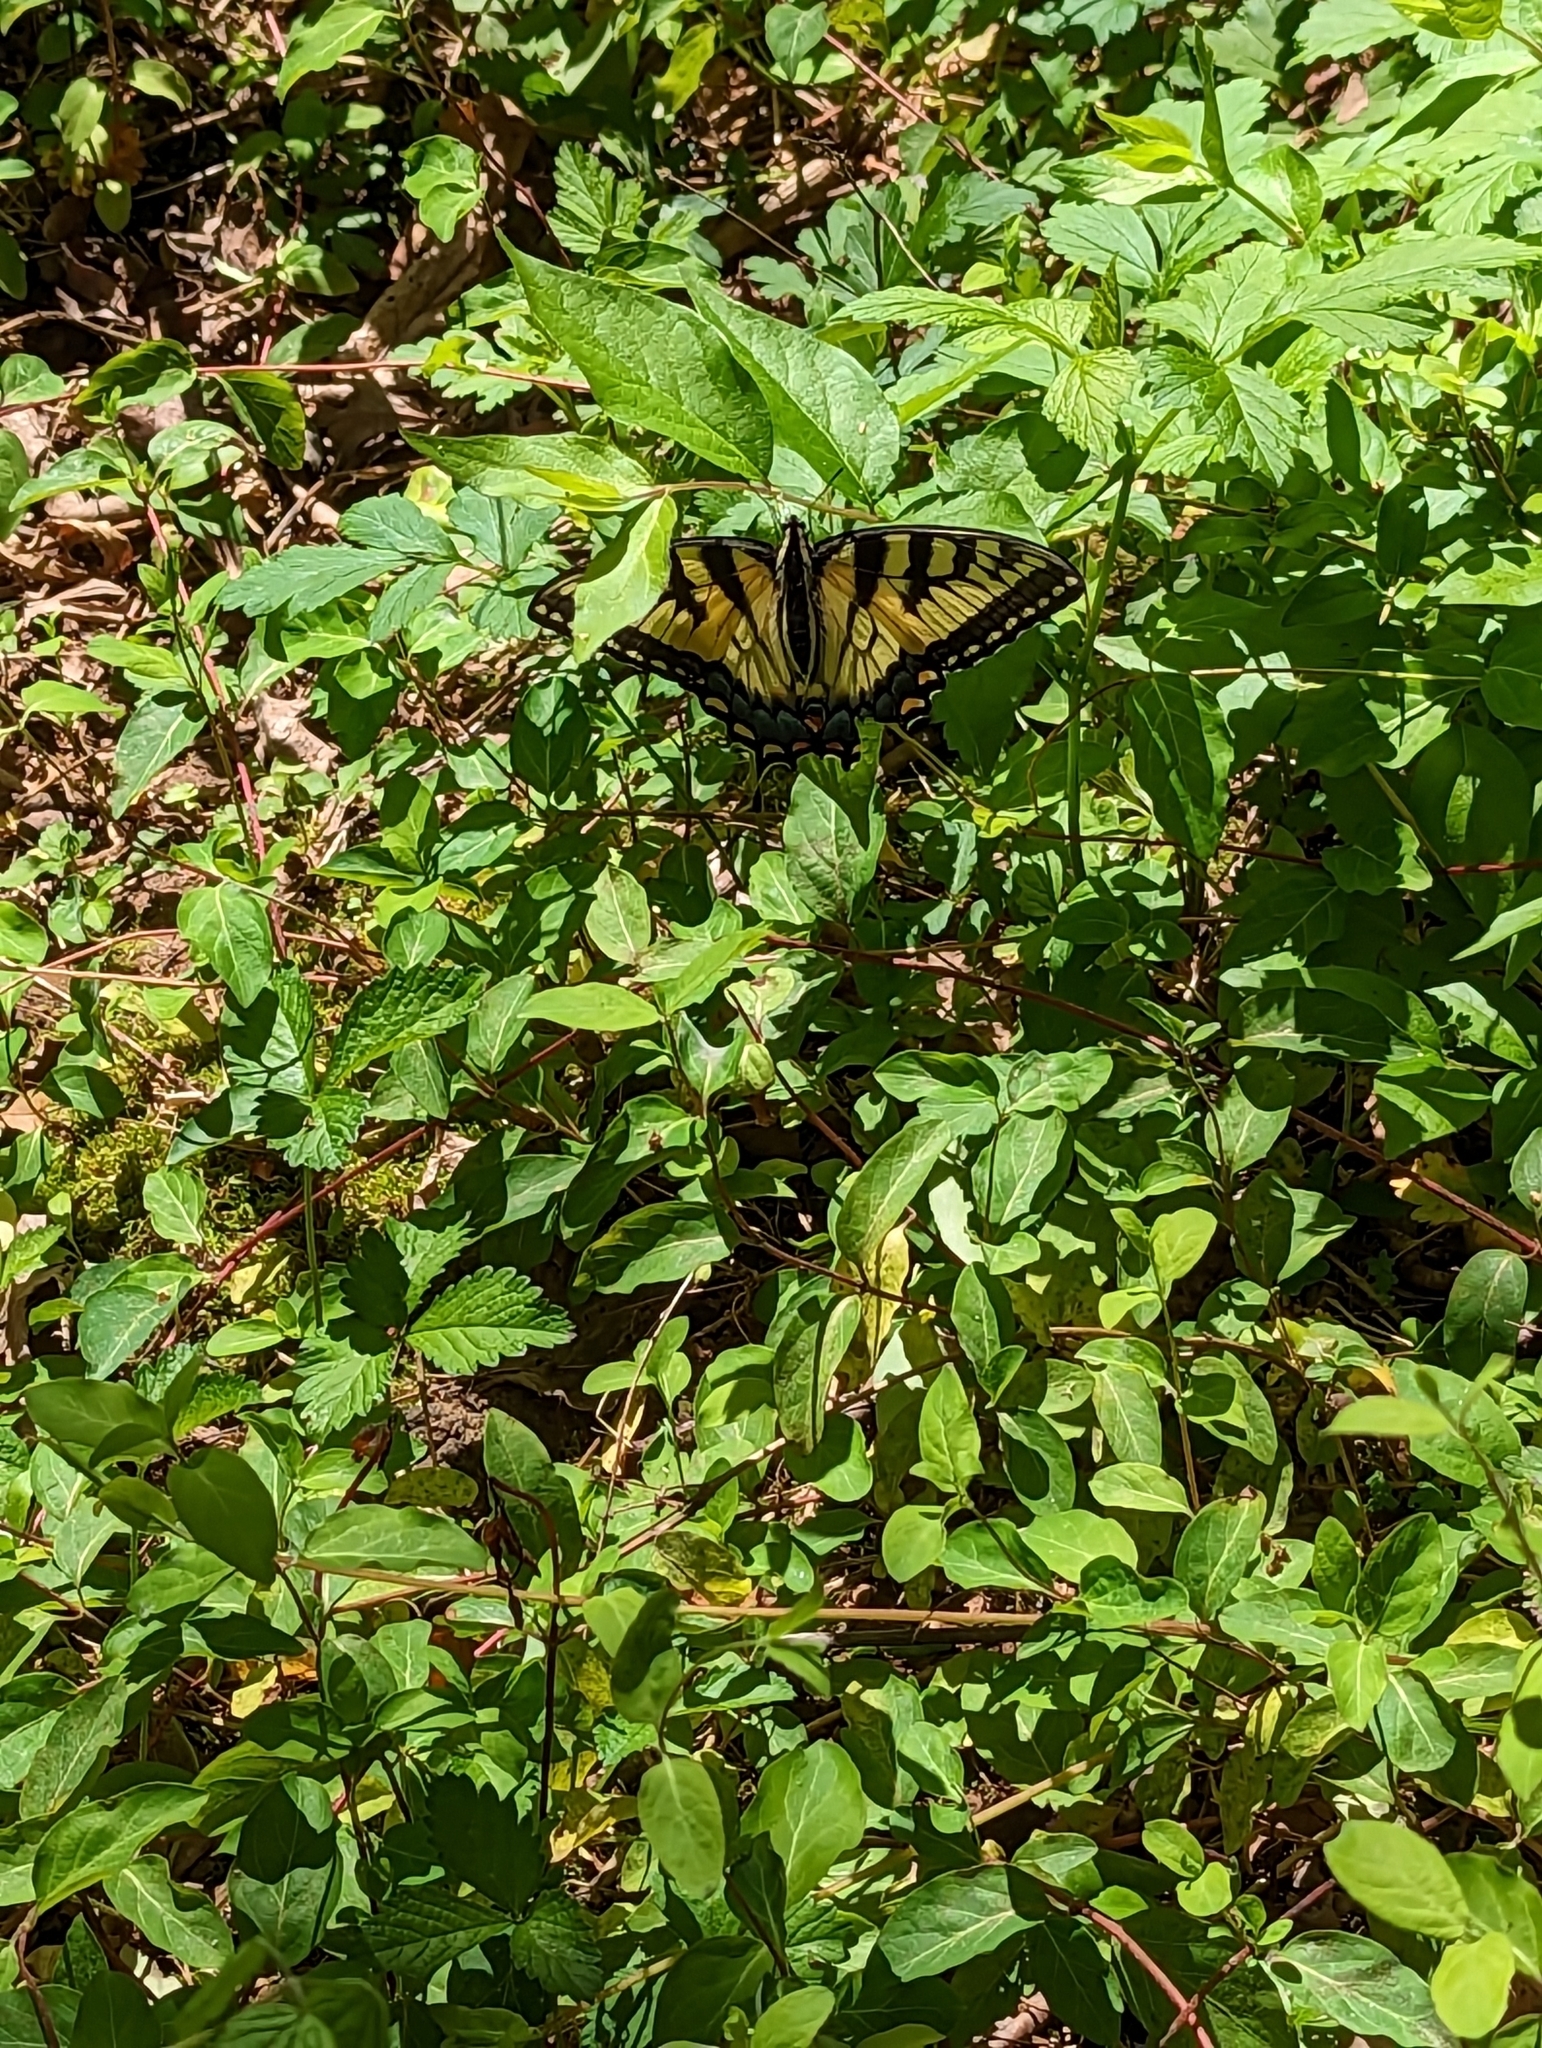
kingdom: Animalia
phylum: Arthropoda
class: Insecta
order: Lepidoptera
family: Papilionidae
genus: Papilio
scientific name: Papilio glaucus
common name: Tiger swallowtail
